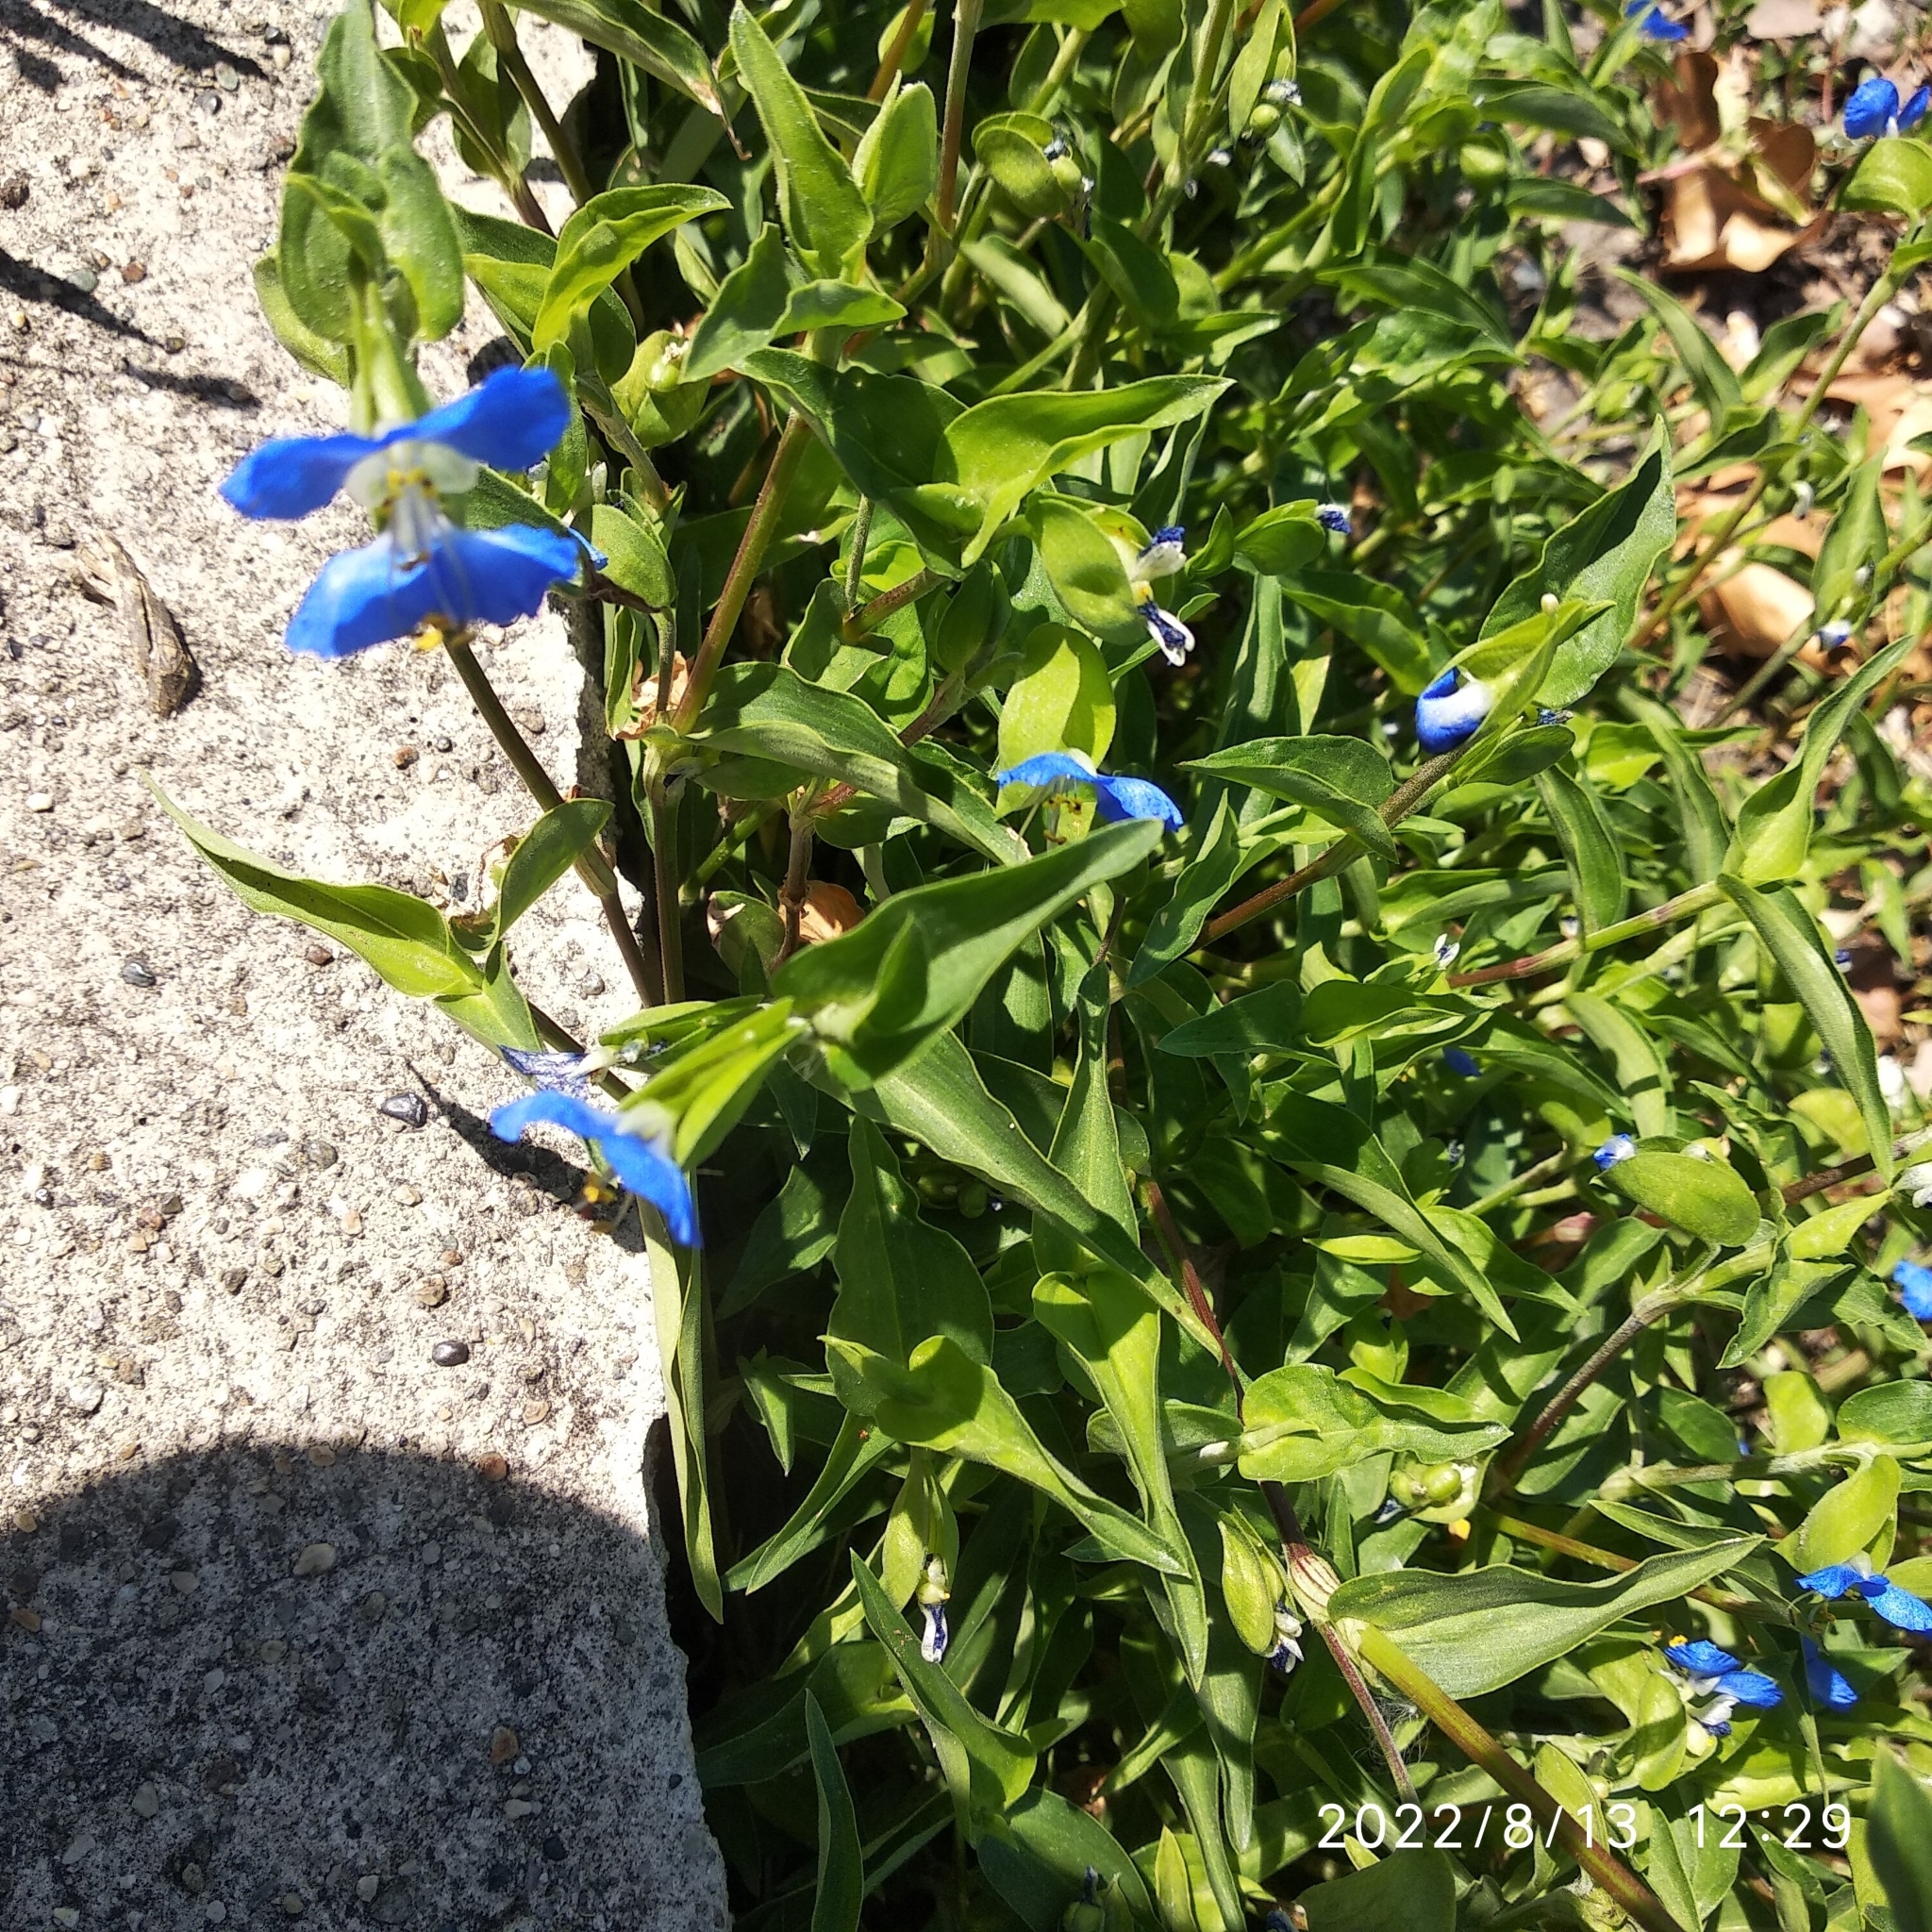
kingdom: Plantae
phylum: Tracheophyta
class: Liliopsida
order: Commelinales
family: Commelinaceae
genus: Commelina
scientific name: Commelina communis
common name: Asiatic dayflower
